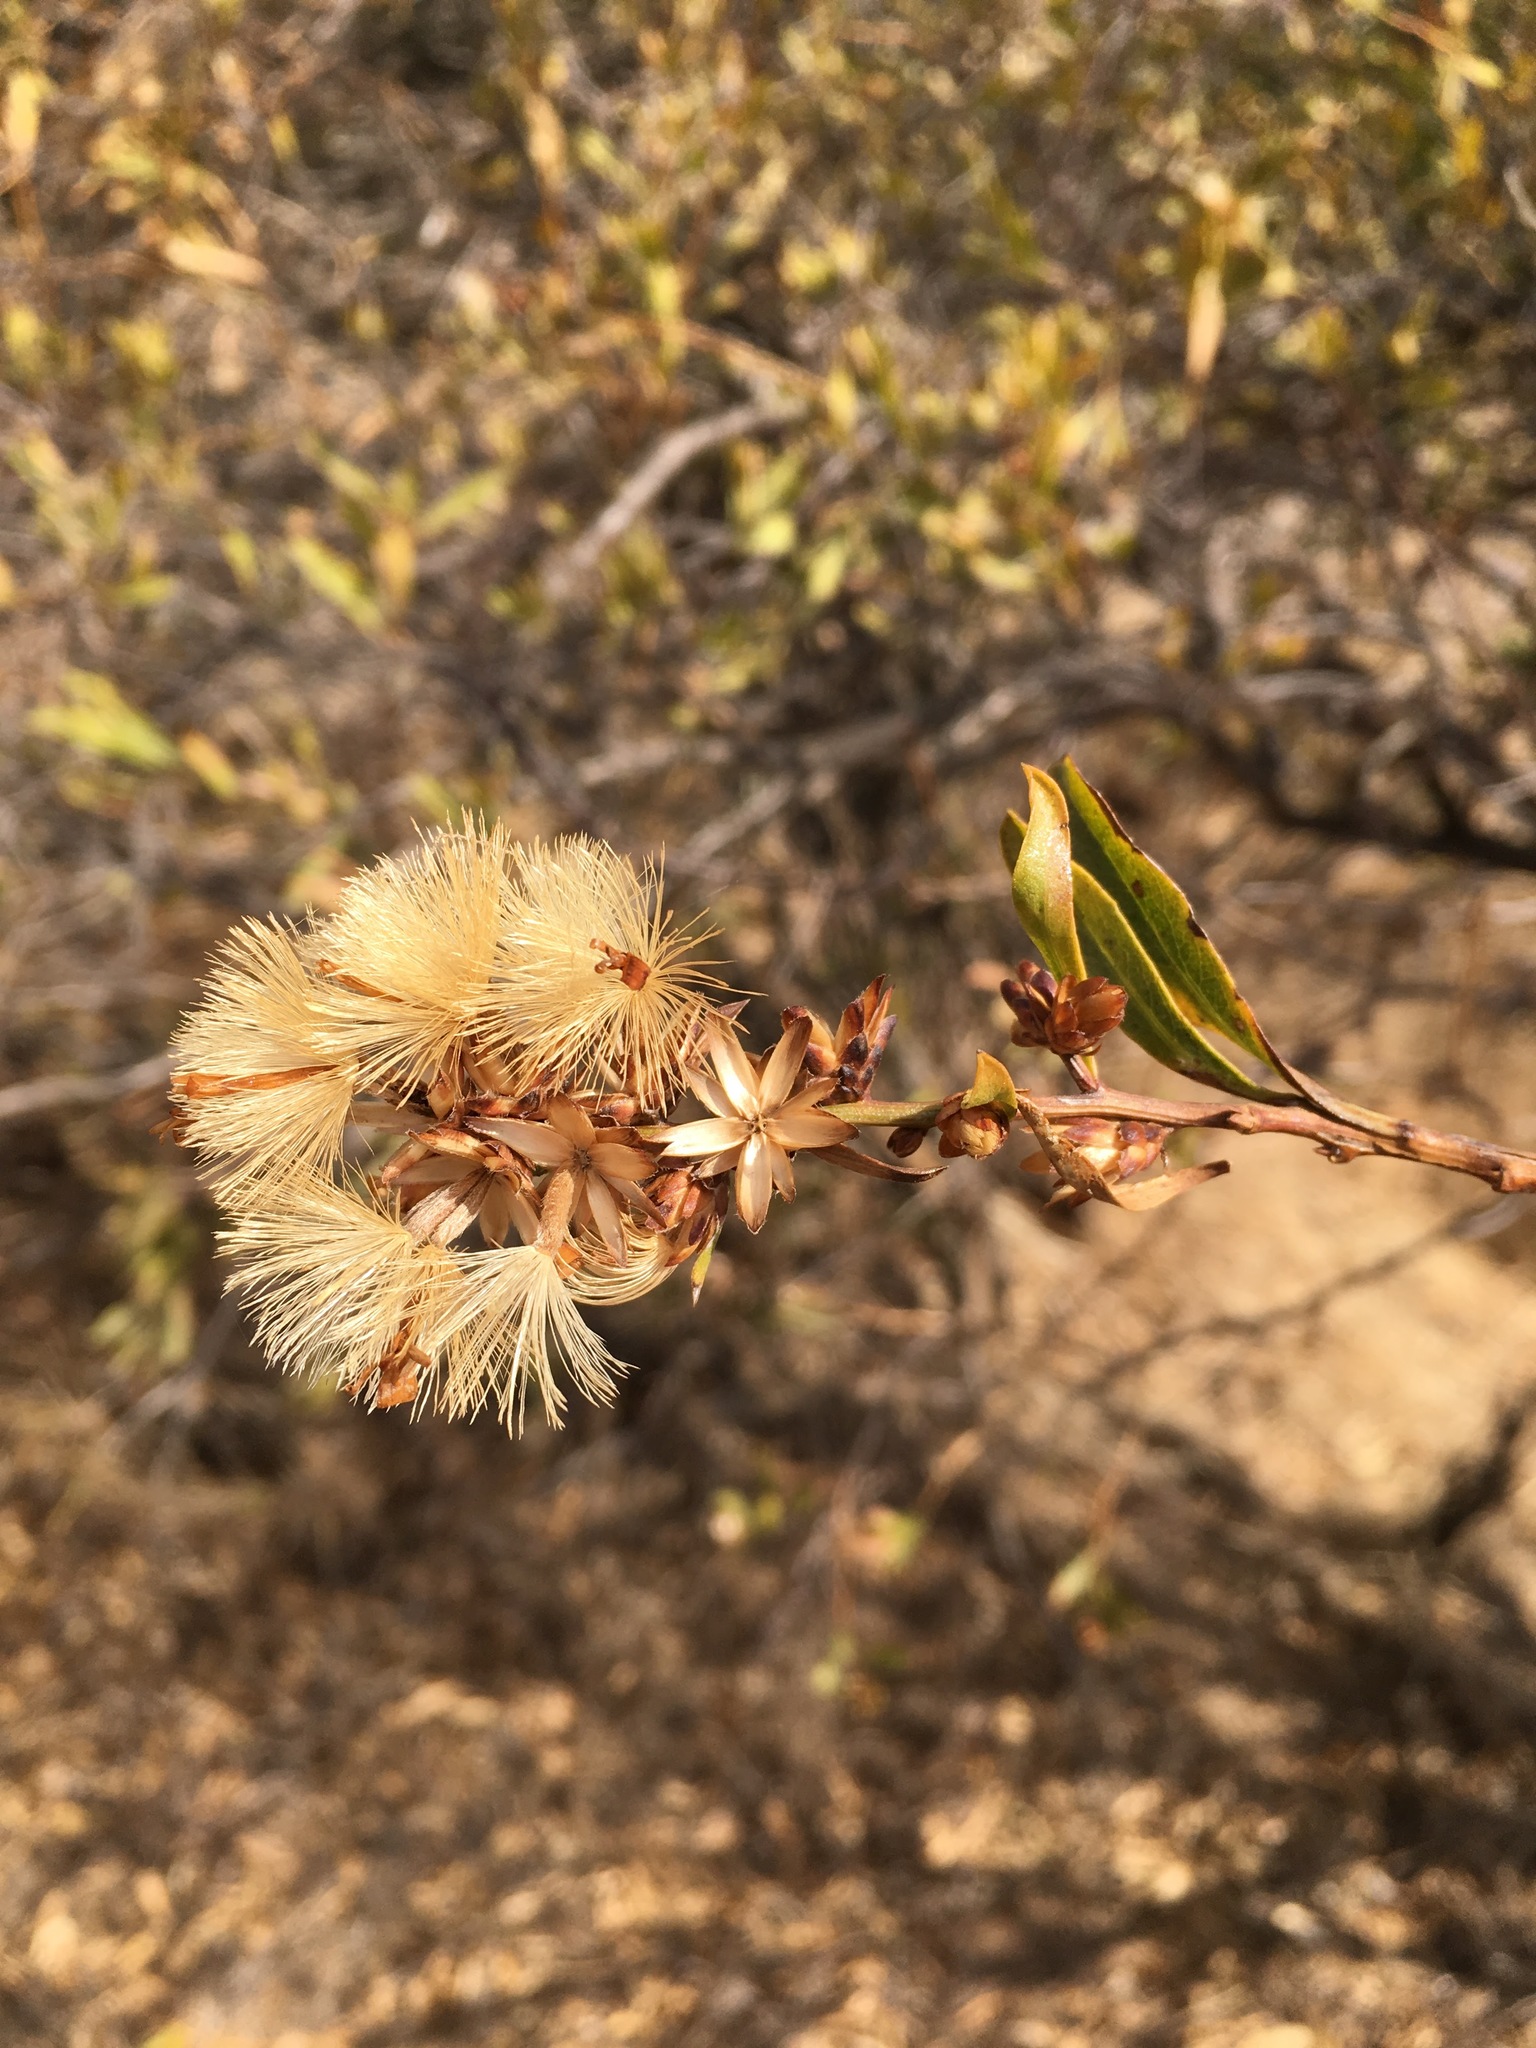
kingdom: Plantae
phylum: Tracheophyta
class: Magnoliopsida
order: Asterales
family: Asteraceae
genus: Proustia
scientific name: Proustia cuneifolia
